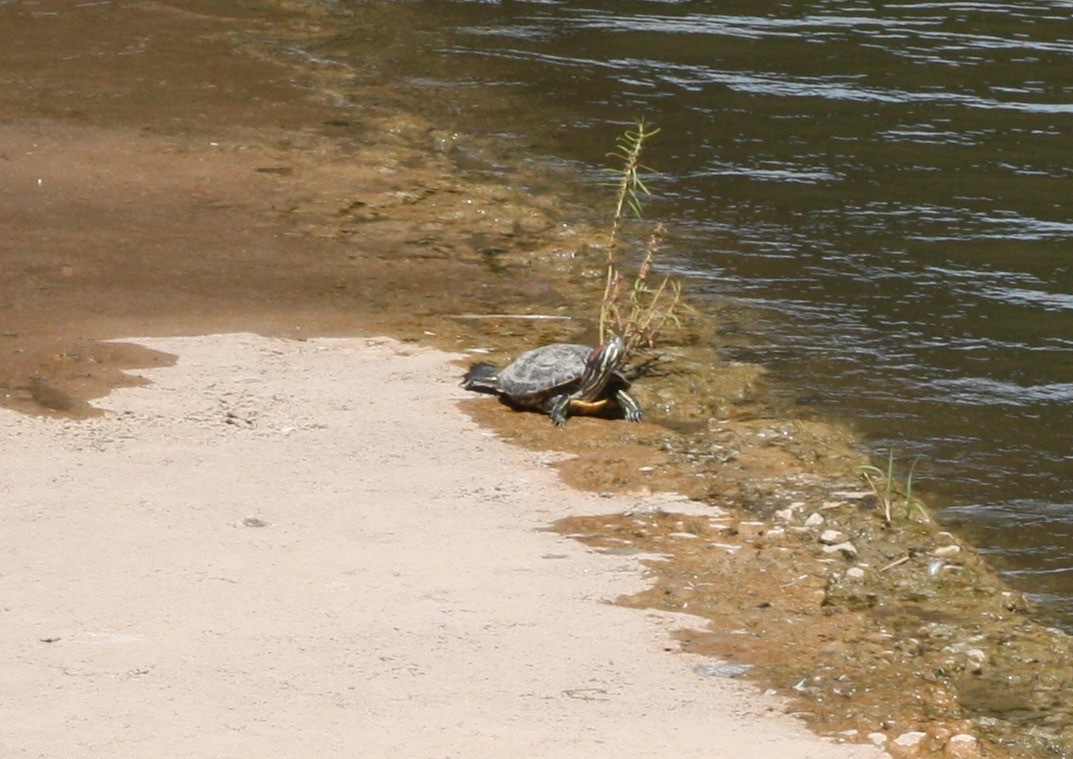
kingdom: Animalia
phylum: Chordata
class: Testudines
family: Emydidae
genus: Trachemys
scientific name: Trachemys scripta
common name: Slider
